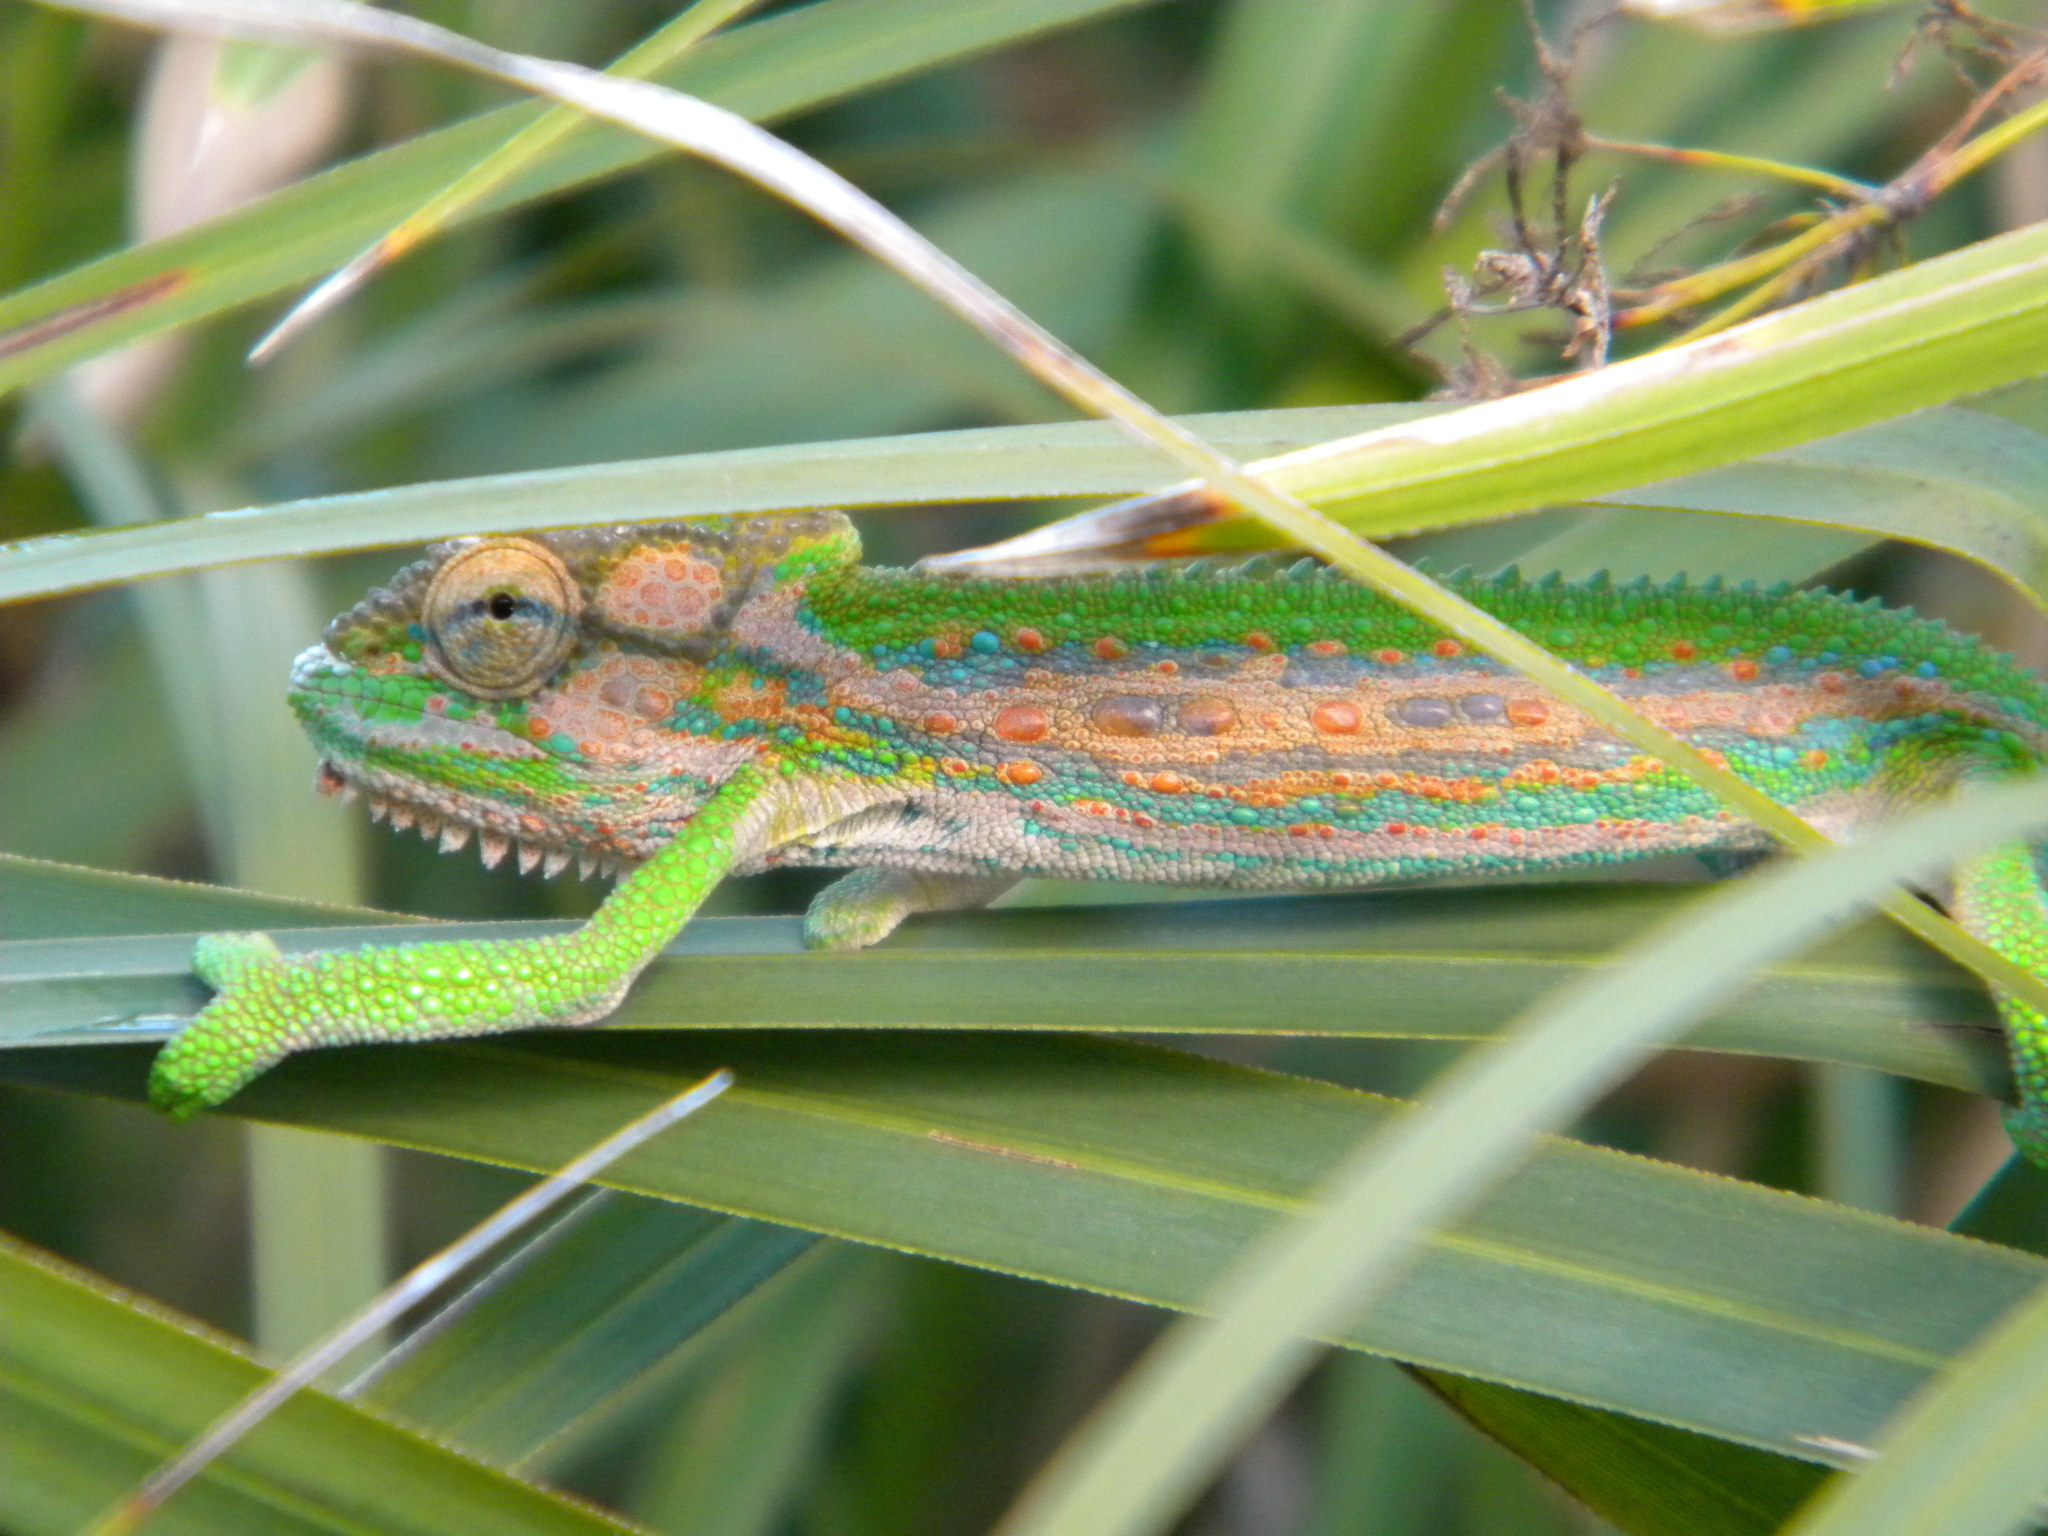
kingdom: Animalia
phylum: Chordata
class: Squamata
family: Chamaeleonidae
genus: Bradypodion
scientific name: Bradypodion pumilum
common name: Cape dwarf chameleon
